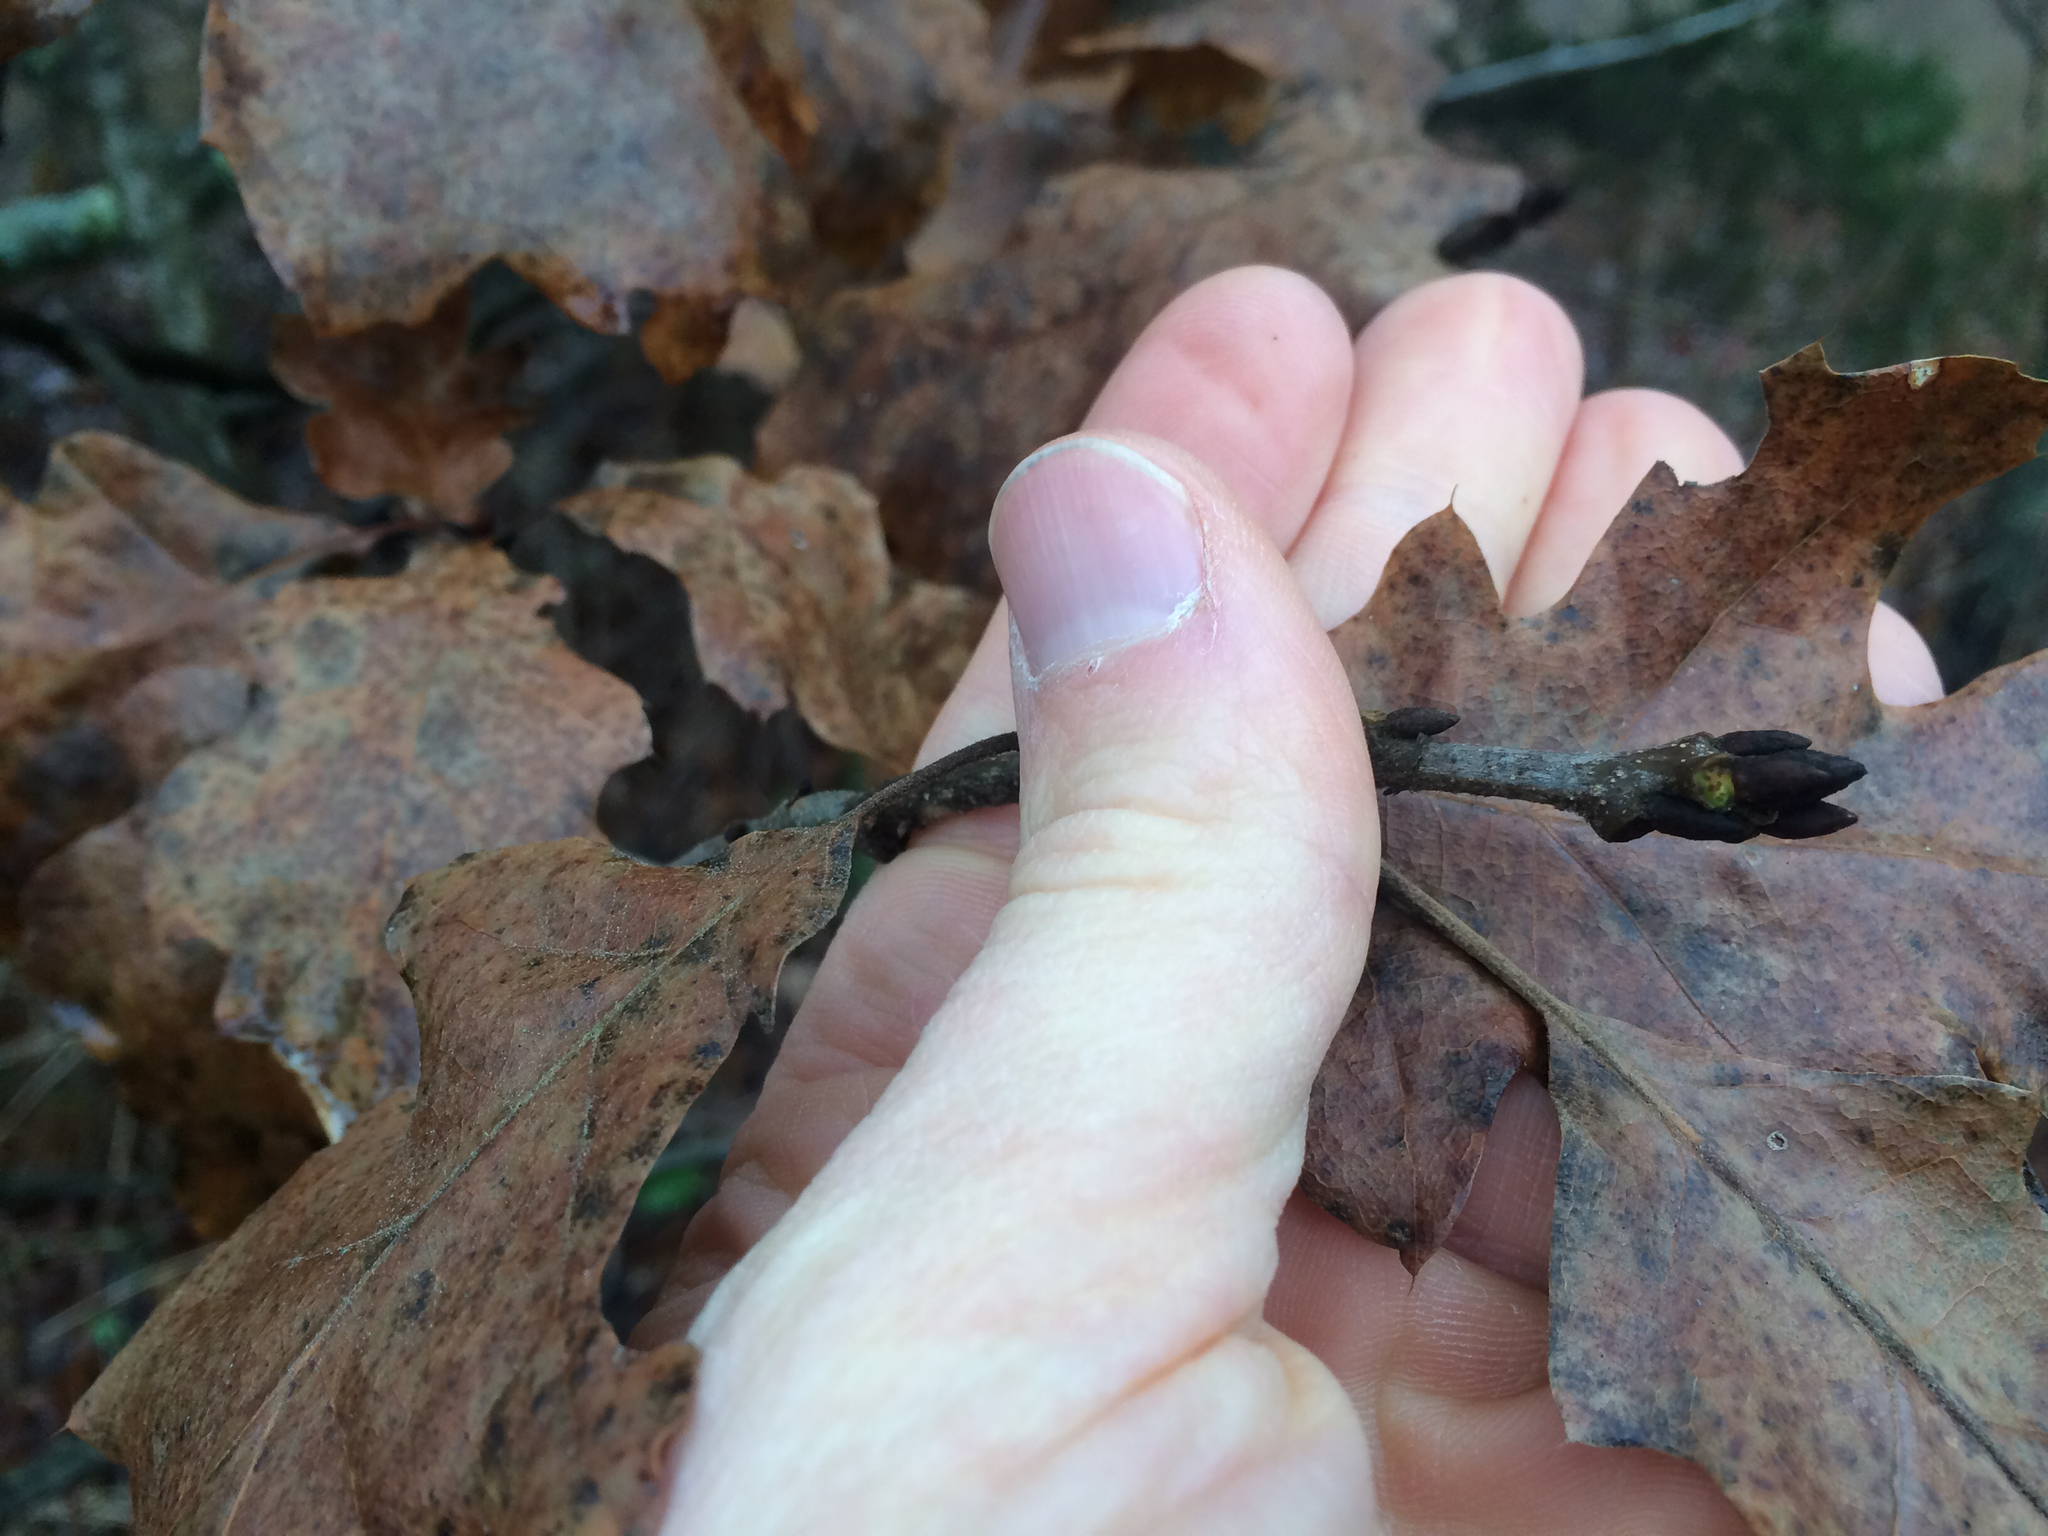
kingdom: Plantae
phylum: Tracheophyta
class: Magnoliopsida
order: Fagales
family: Fagaceae
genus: Quercus
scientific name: Quercus velutina
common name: Black oak
